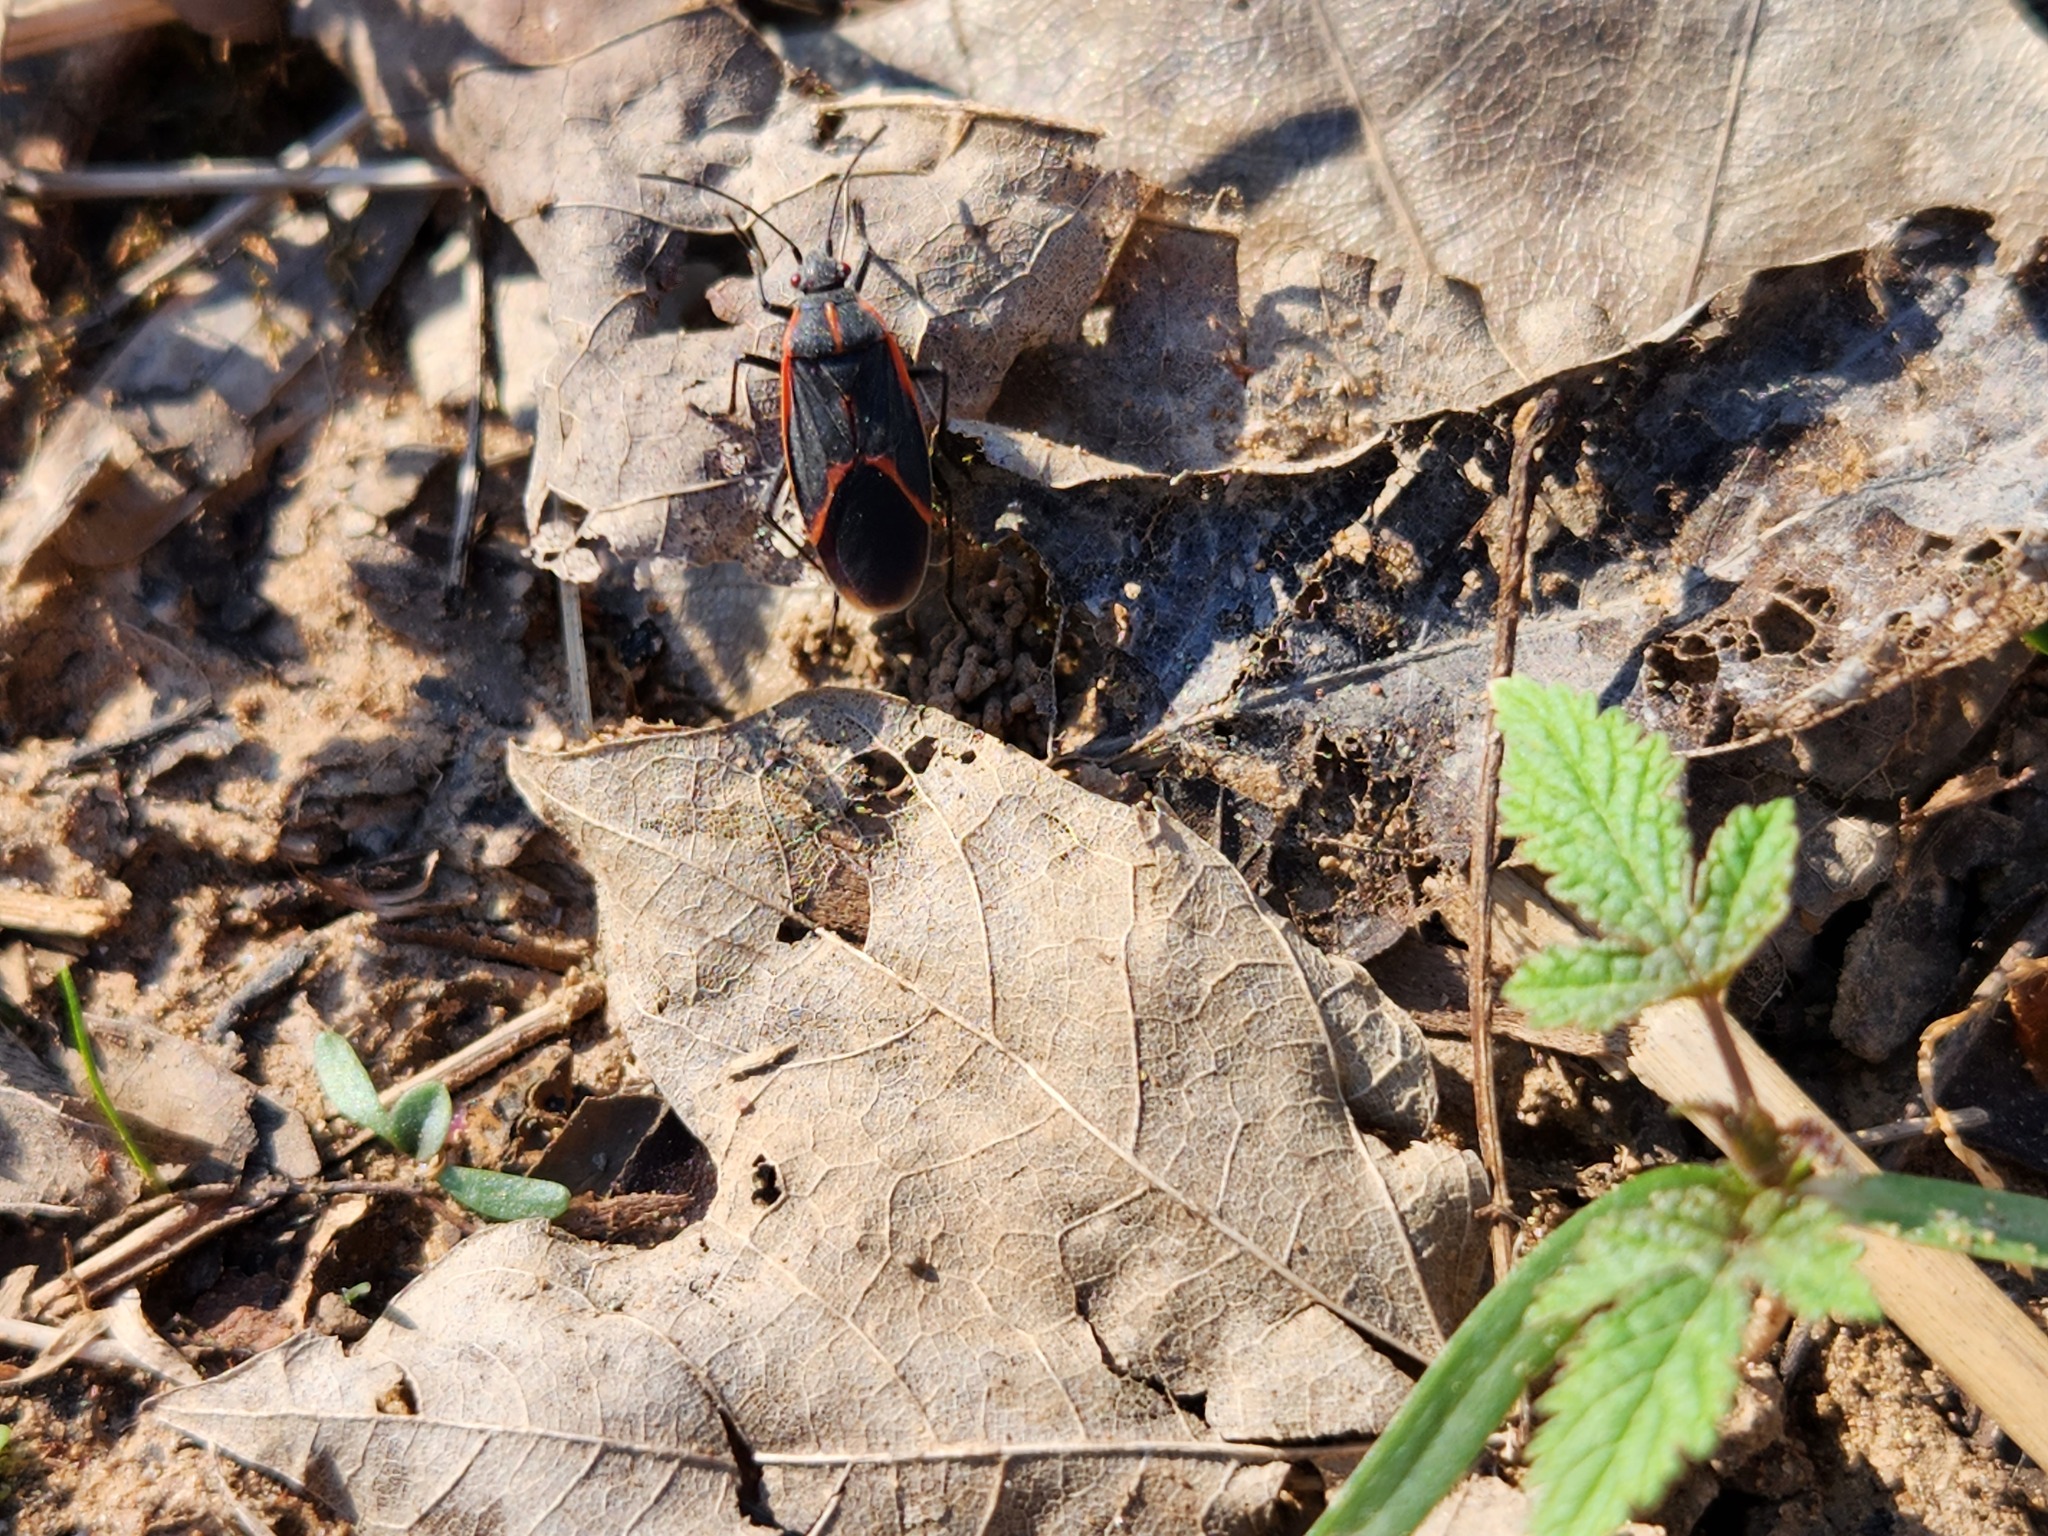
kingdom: Animalia
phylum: Arthropoda
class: Insecta
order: Hemiptera
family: Rhopalidae
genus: Boisea
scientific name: Boisea trivittata
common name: Boxelder bug
